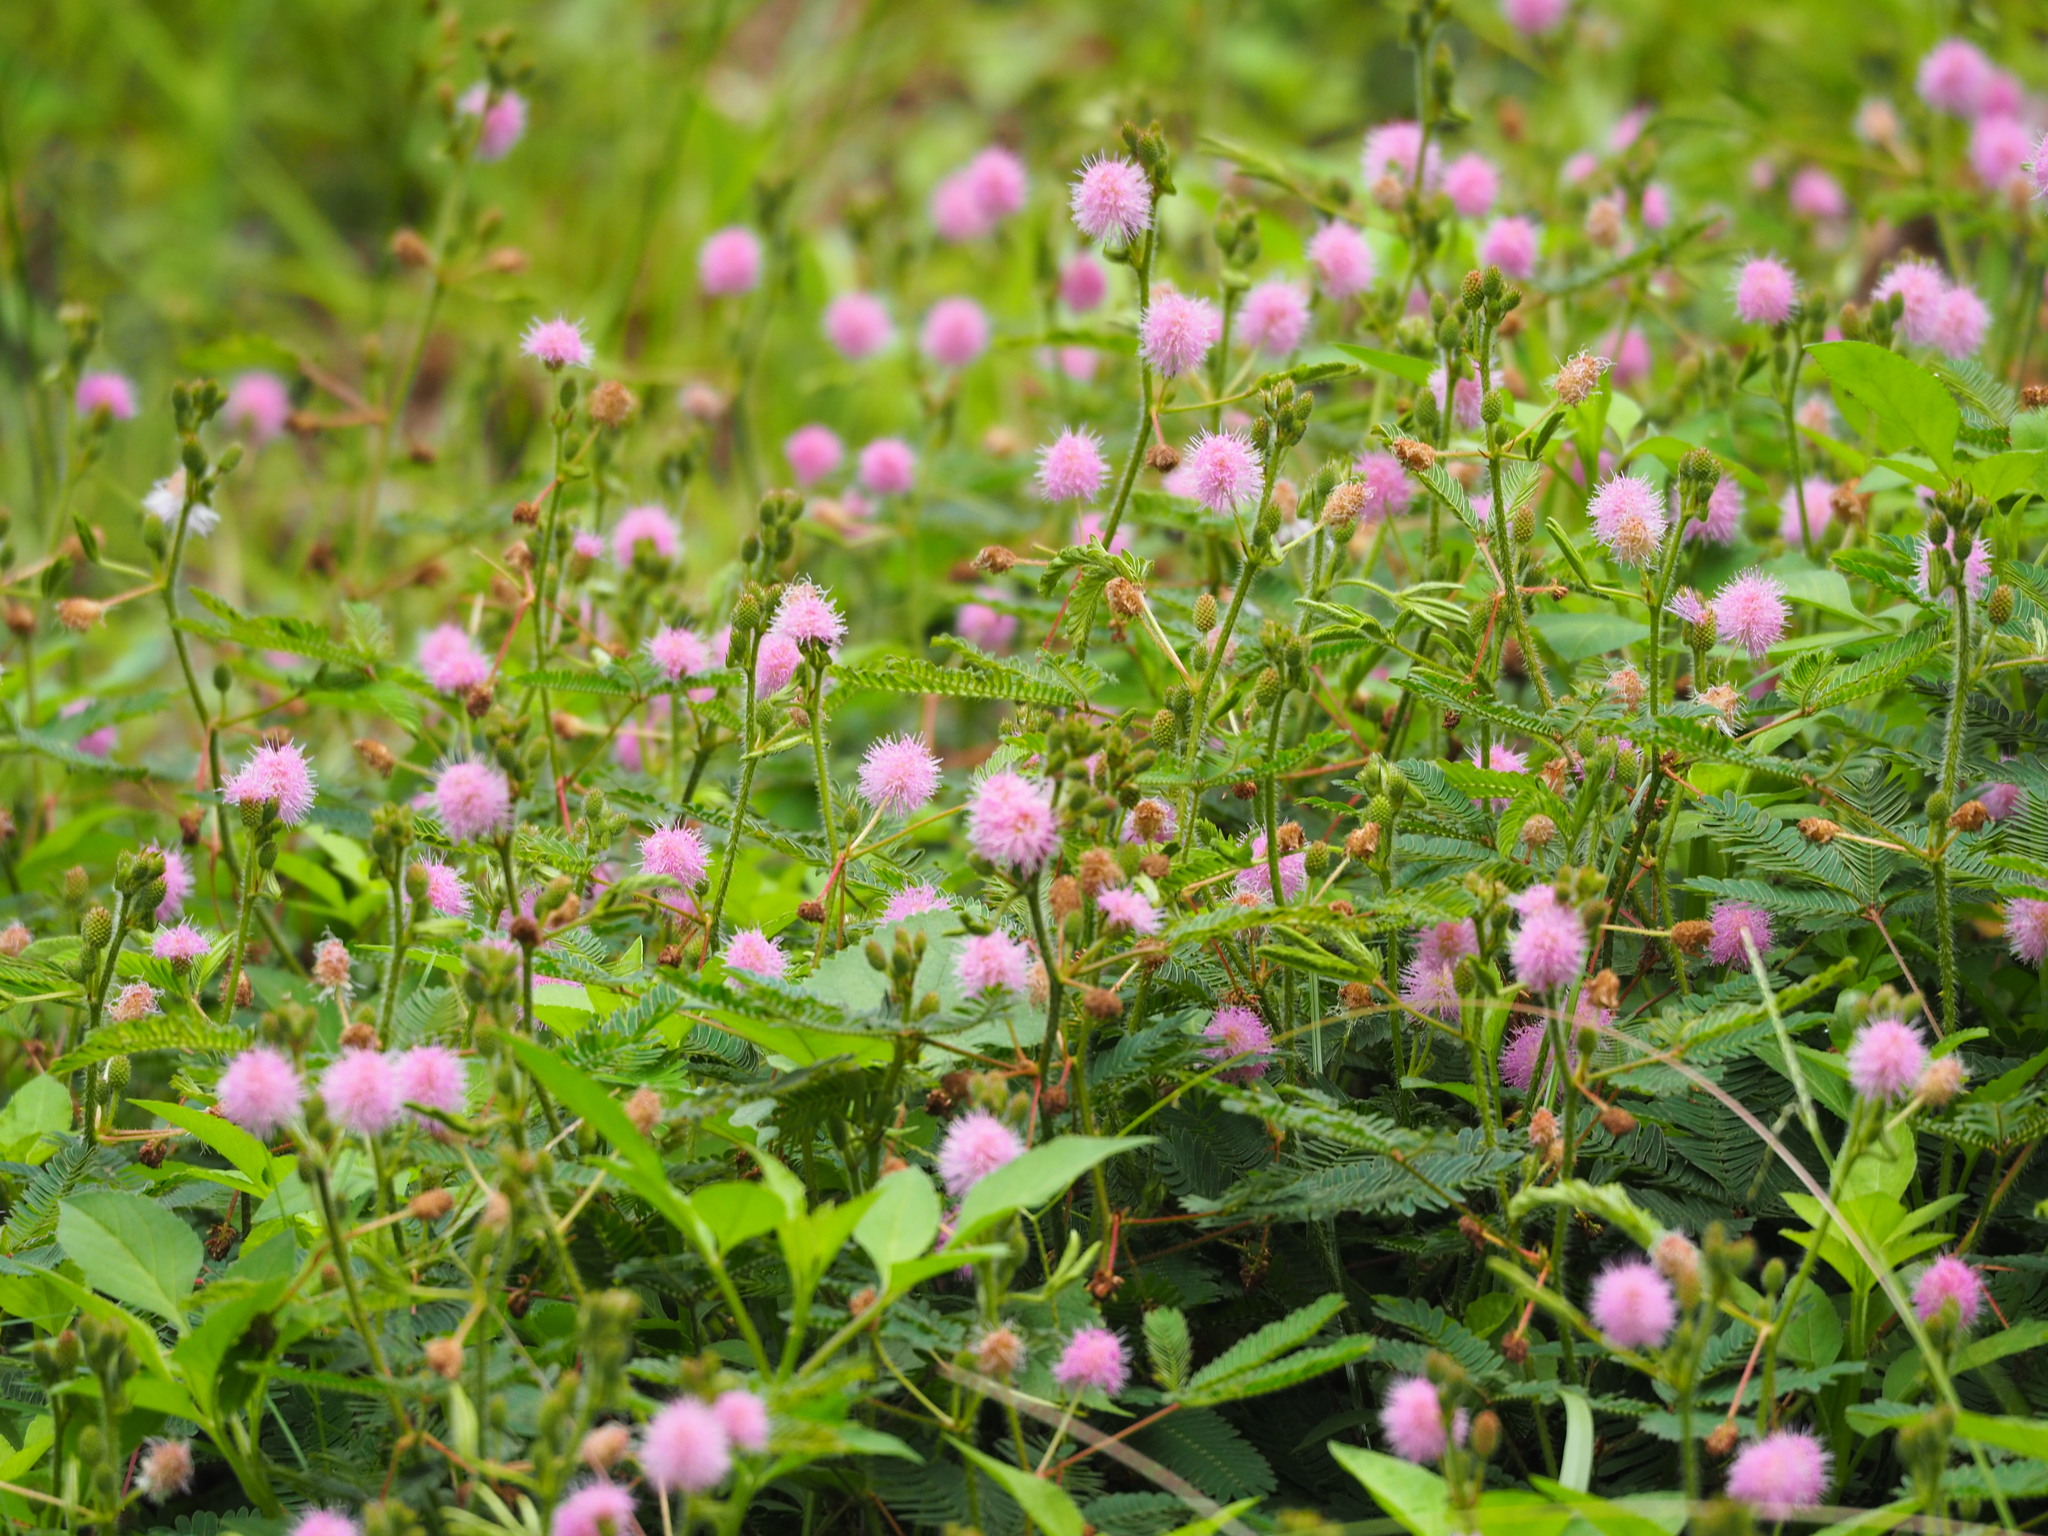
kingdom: Plantae
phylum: Tracheophyta
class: Magnoliopsida
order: Fabales
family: Fabaceae
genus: Mimosa
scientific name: Mimosa pudica
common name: Sensitive plant
